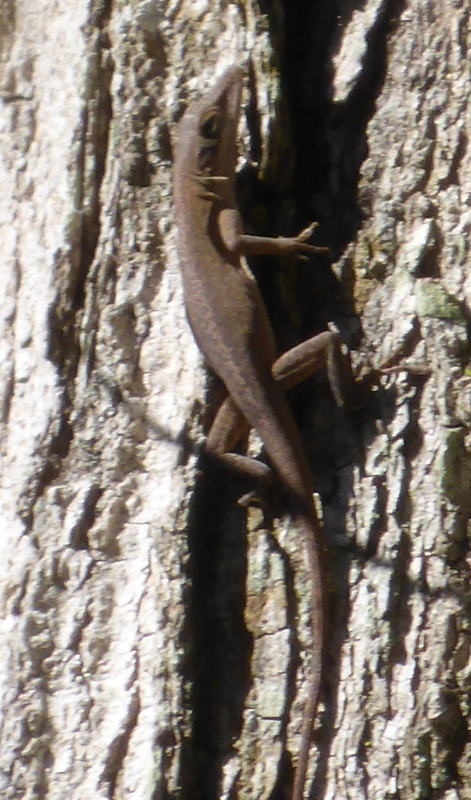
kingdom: Animalia
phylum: Chordata
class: Squamata
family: Dactyloidae
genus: Anolis
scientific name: Anolis carolinensis
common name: Green anole
